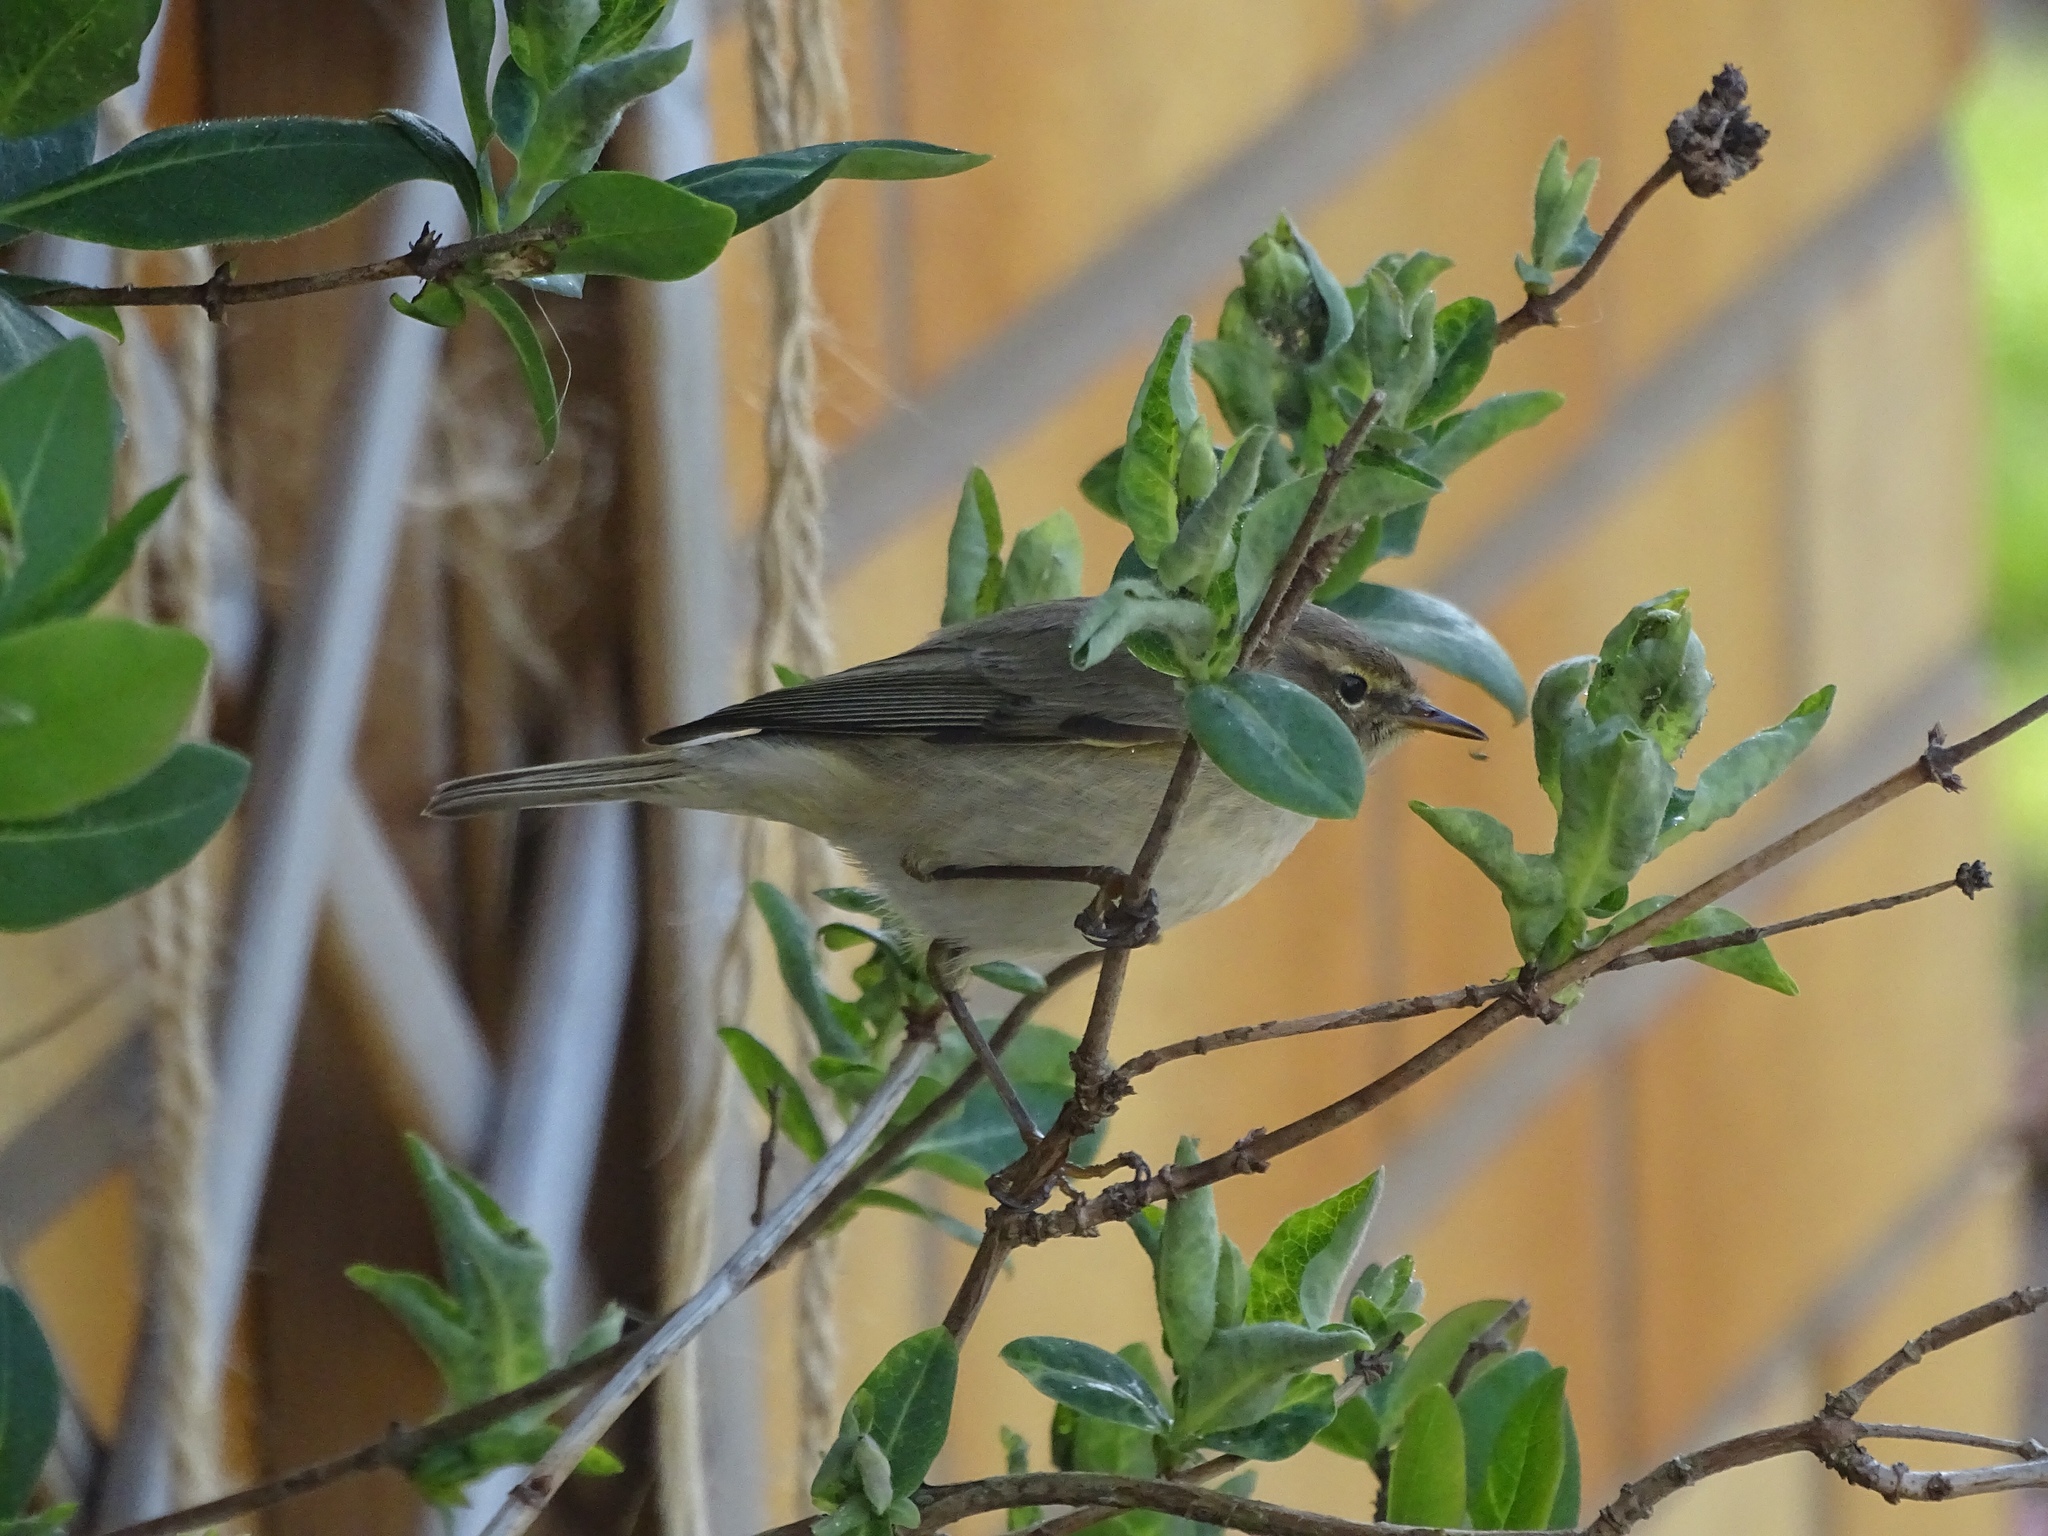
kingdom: Animalia
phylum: Chordata
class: Aves
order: Passeriformes
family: Phylloscopidae
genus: Phylloscopus
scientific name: Phylloscopus collybita
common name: Common chiffchaff
